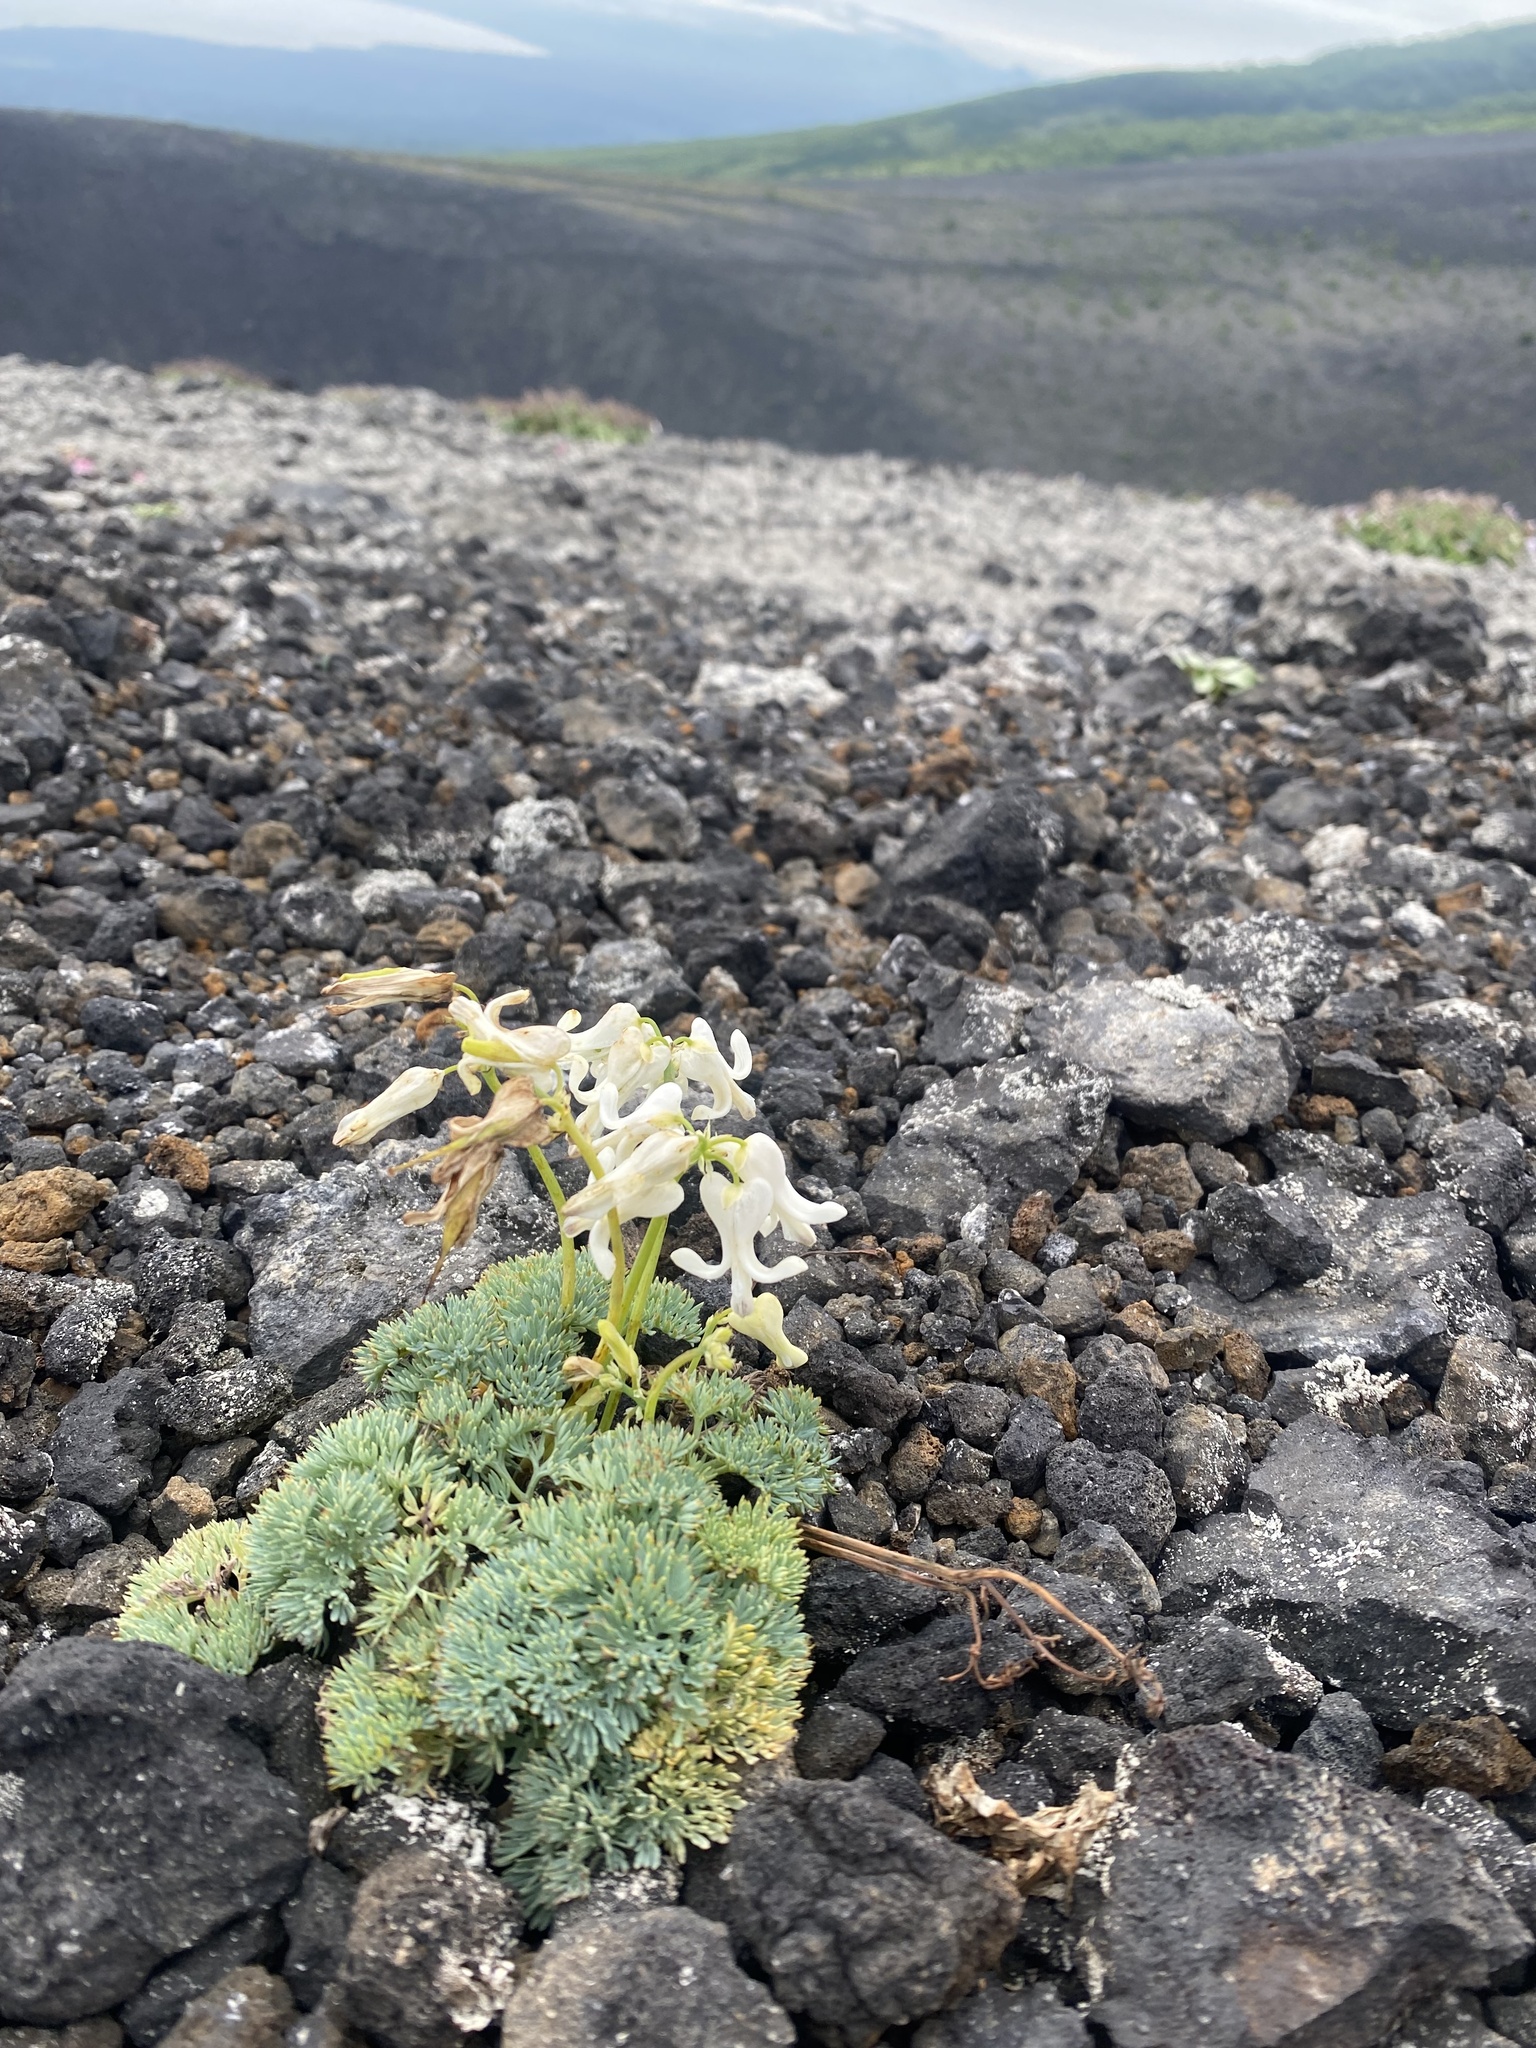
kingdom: Plantae
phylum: Tracheophyta
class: Magnoliopsida
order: Ranunculales
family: Papaveraceae
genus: Dicentra
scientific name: Dicentra peregrina
